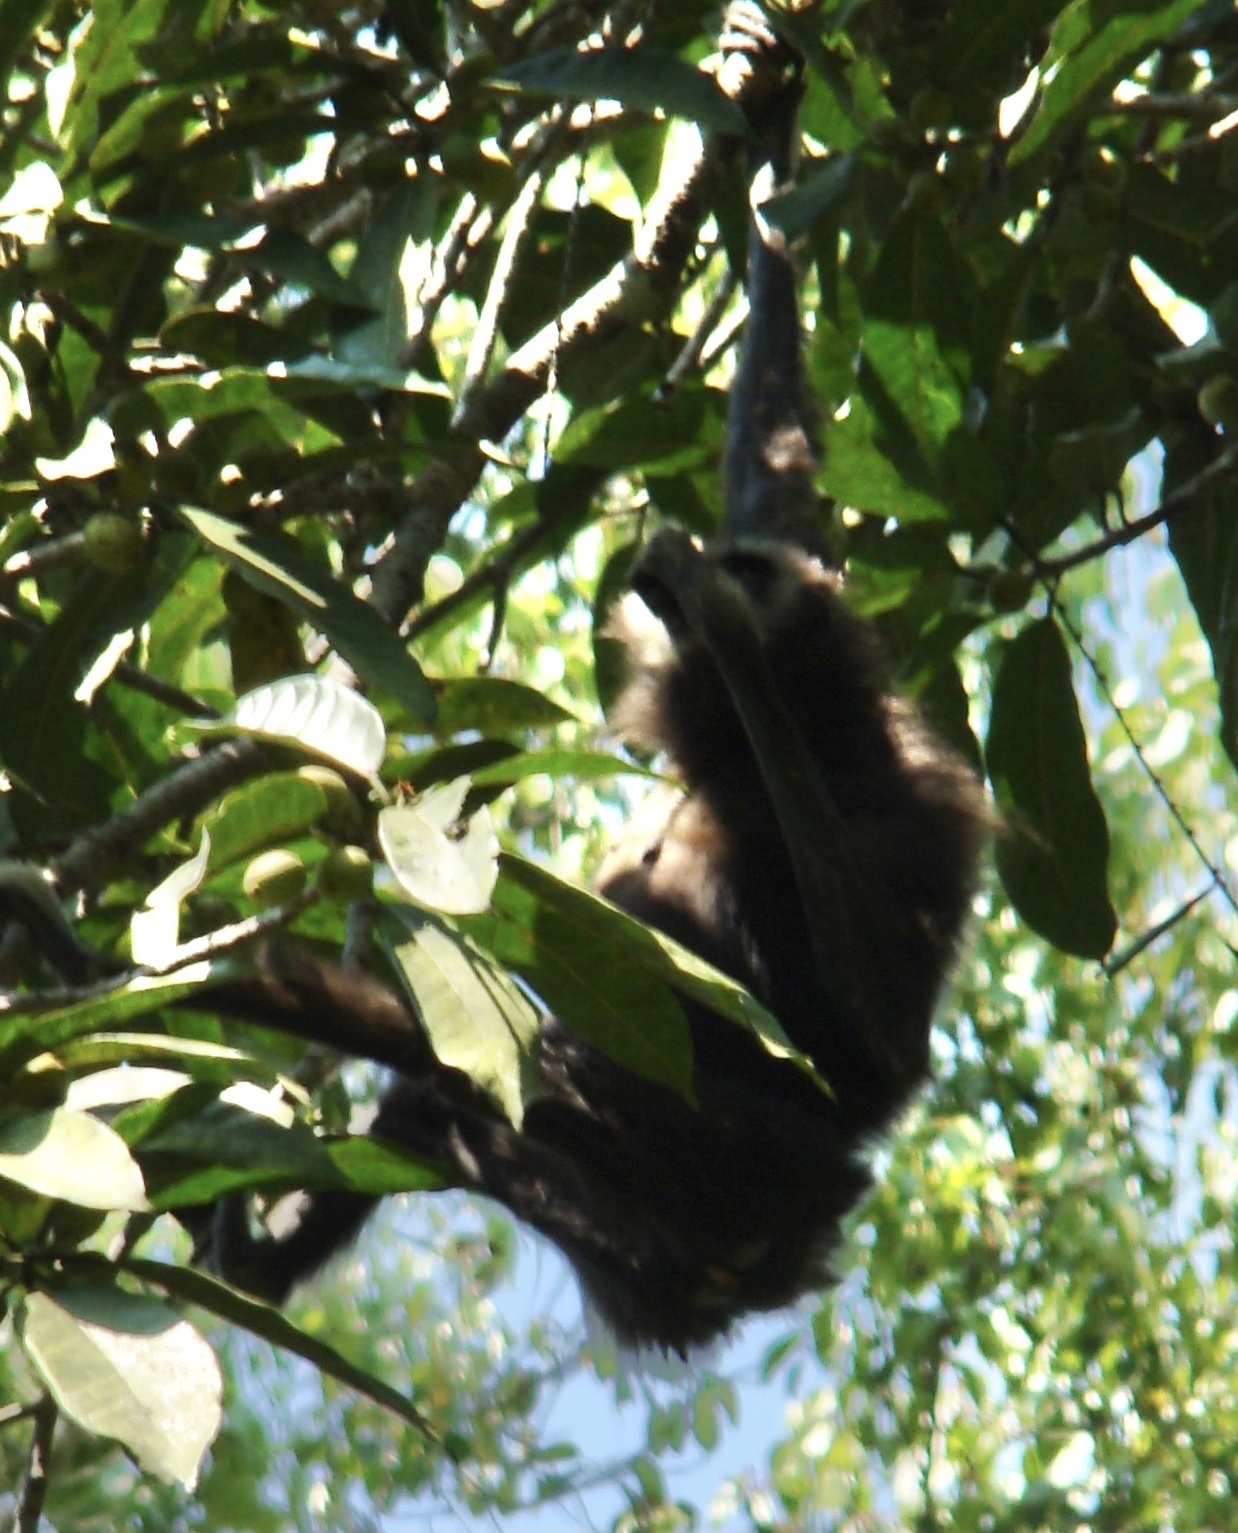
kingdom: Animalia
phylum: Chordata
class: Mammalia
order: Primates
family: Hylobatidae
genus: Hylobates
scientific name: Hylobates lar
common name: Lar gibbon
